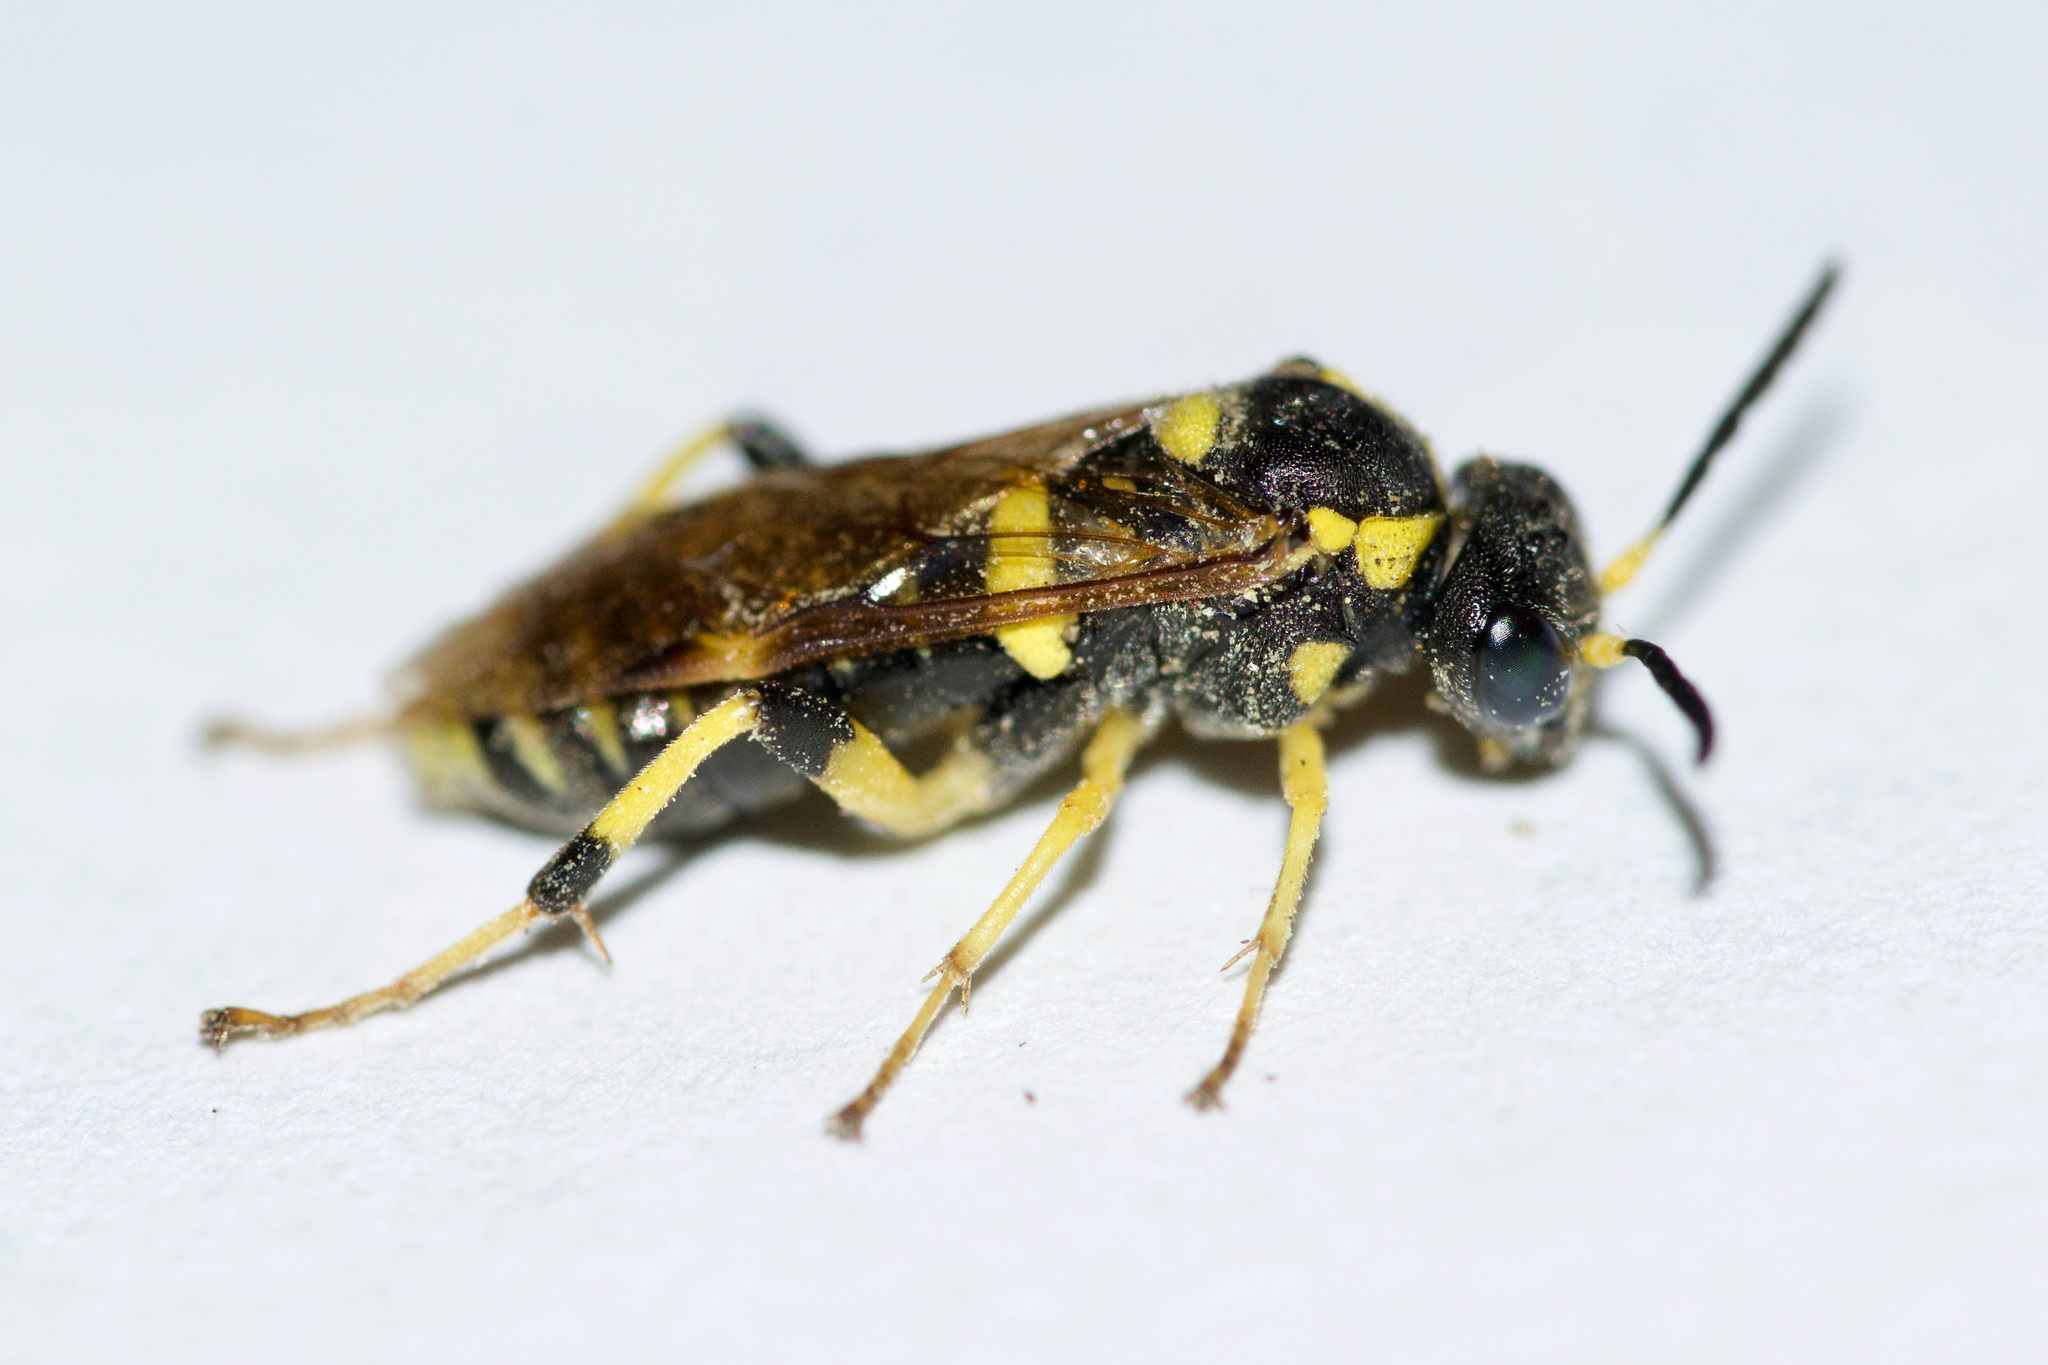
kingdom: Animalia
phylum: Arthropoda
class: Insecta
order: Hymenoptera
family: Tenthredinidae
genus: Macrophya
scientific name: Macrophya
